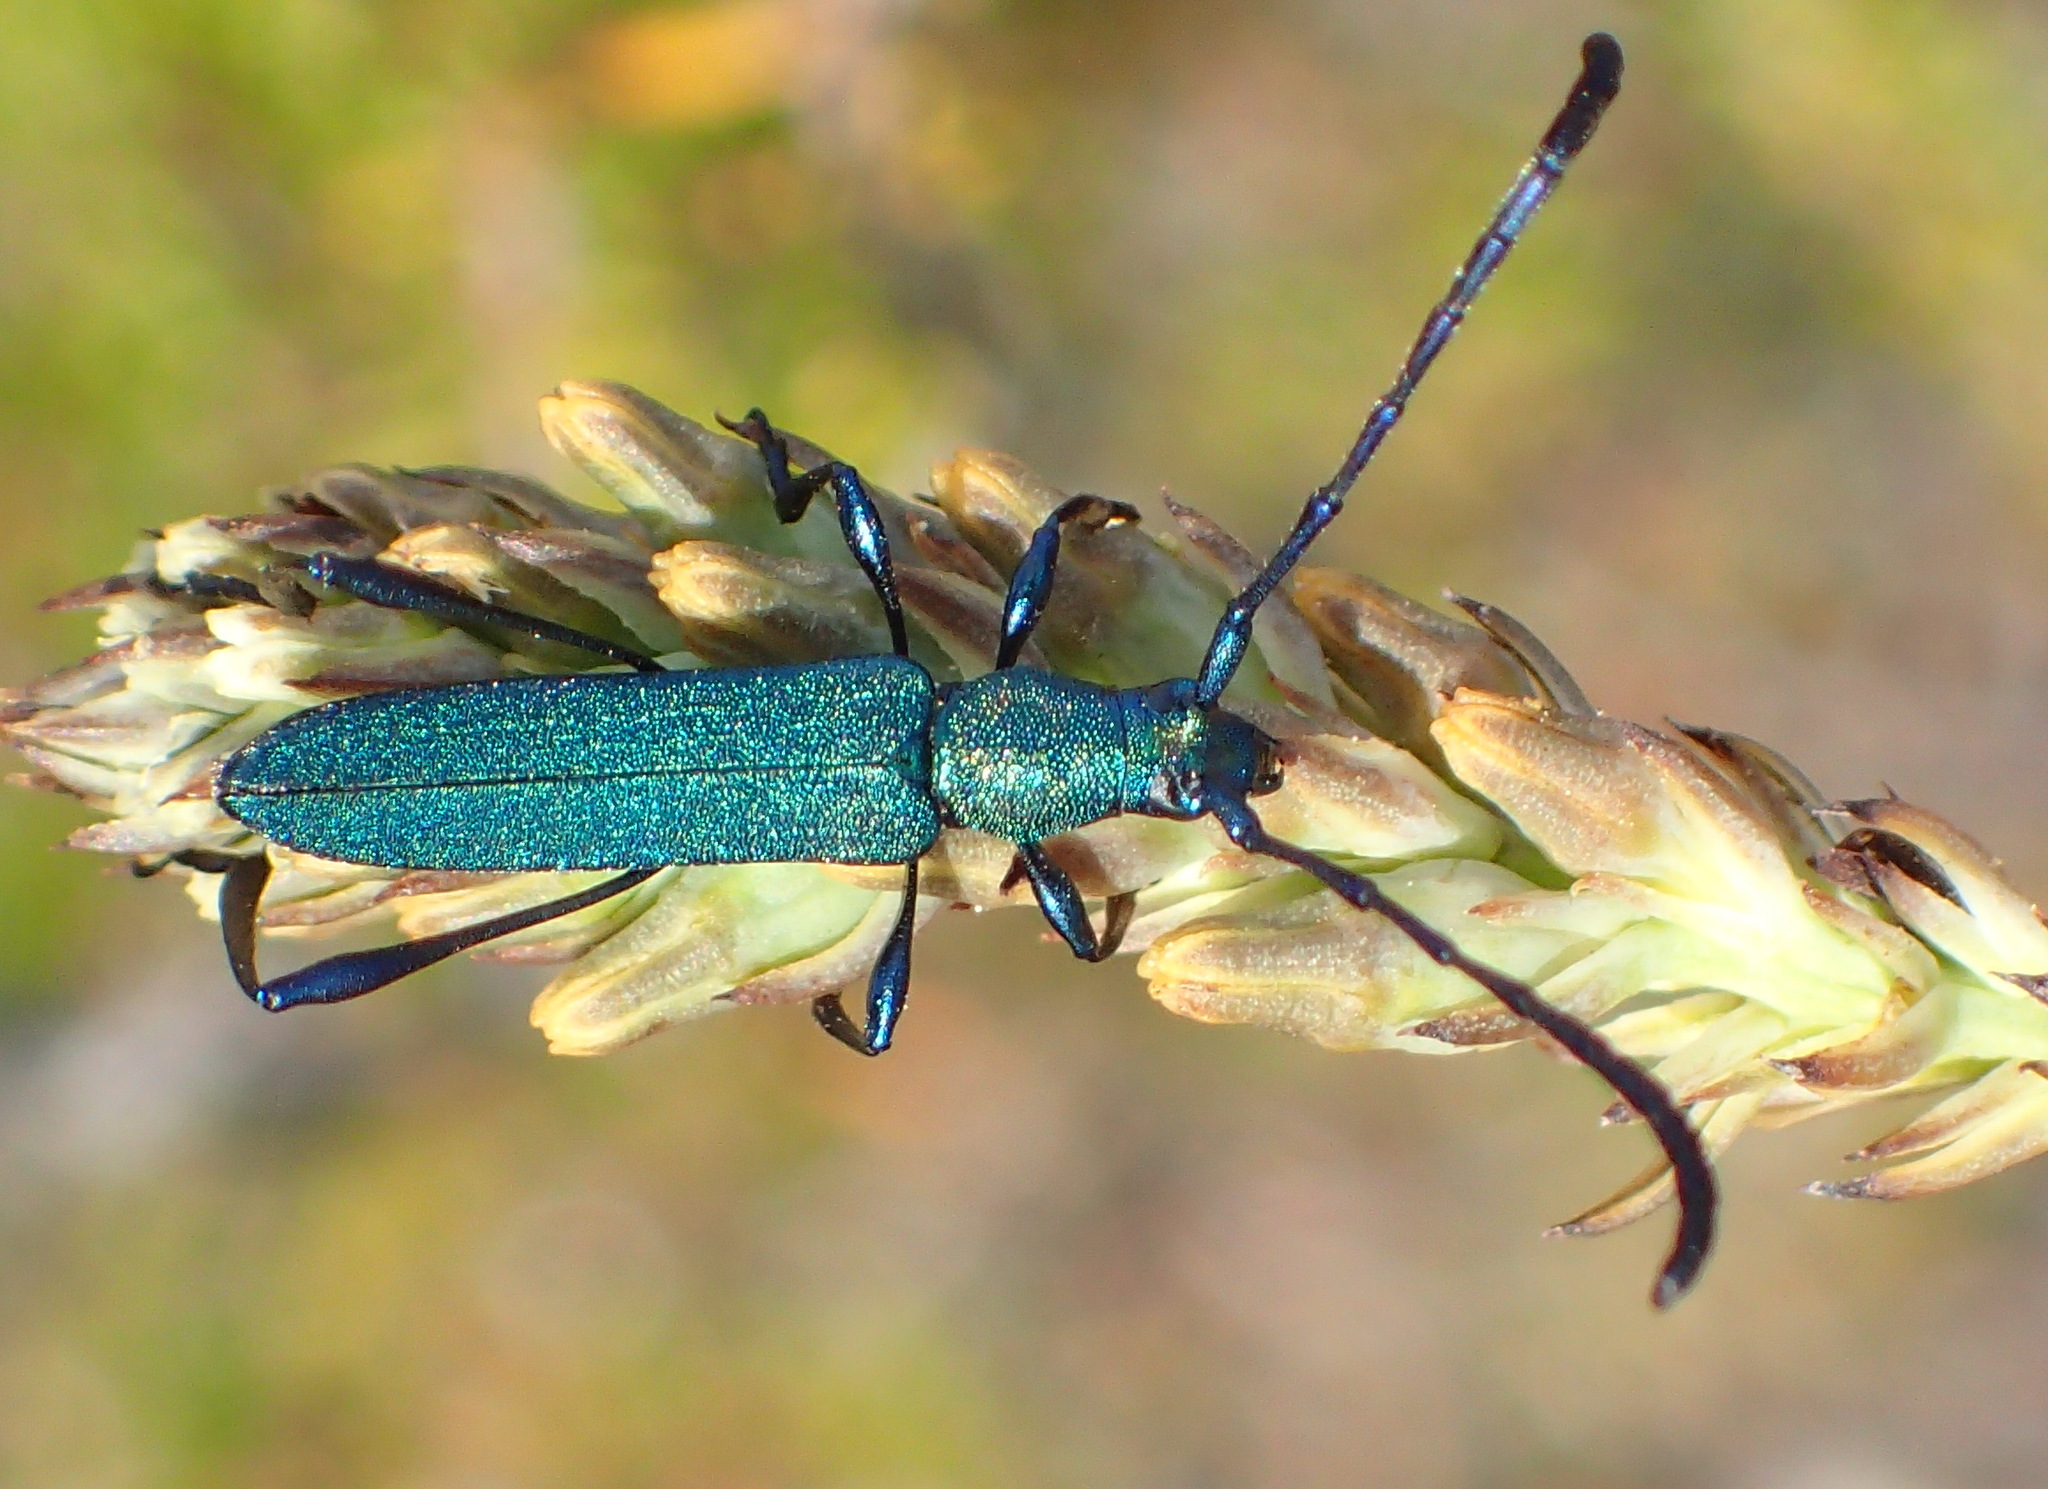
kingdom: Animalia
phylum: Arthropoda
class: Insecta
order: Coleoptera
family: Cerambycidae
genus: Hypocrites
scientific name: Hypocrites
